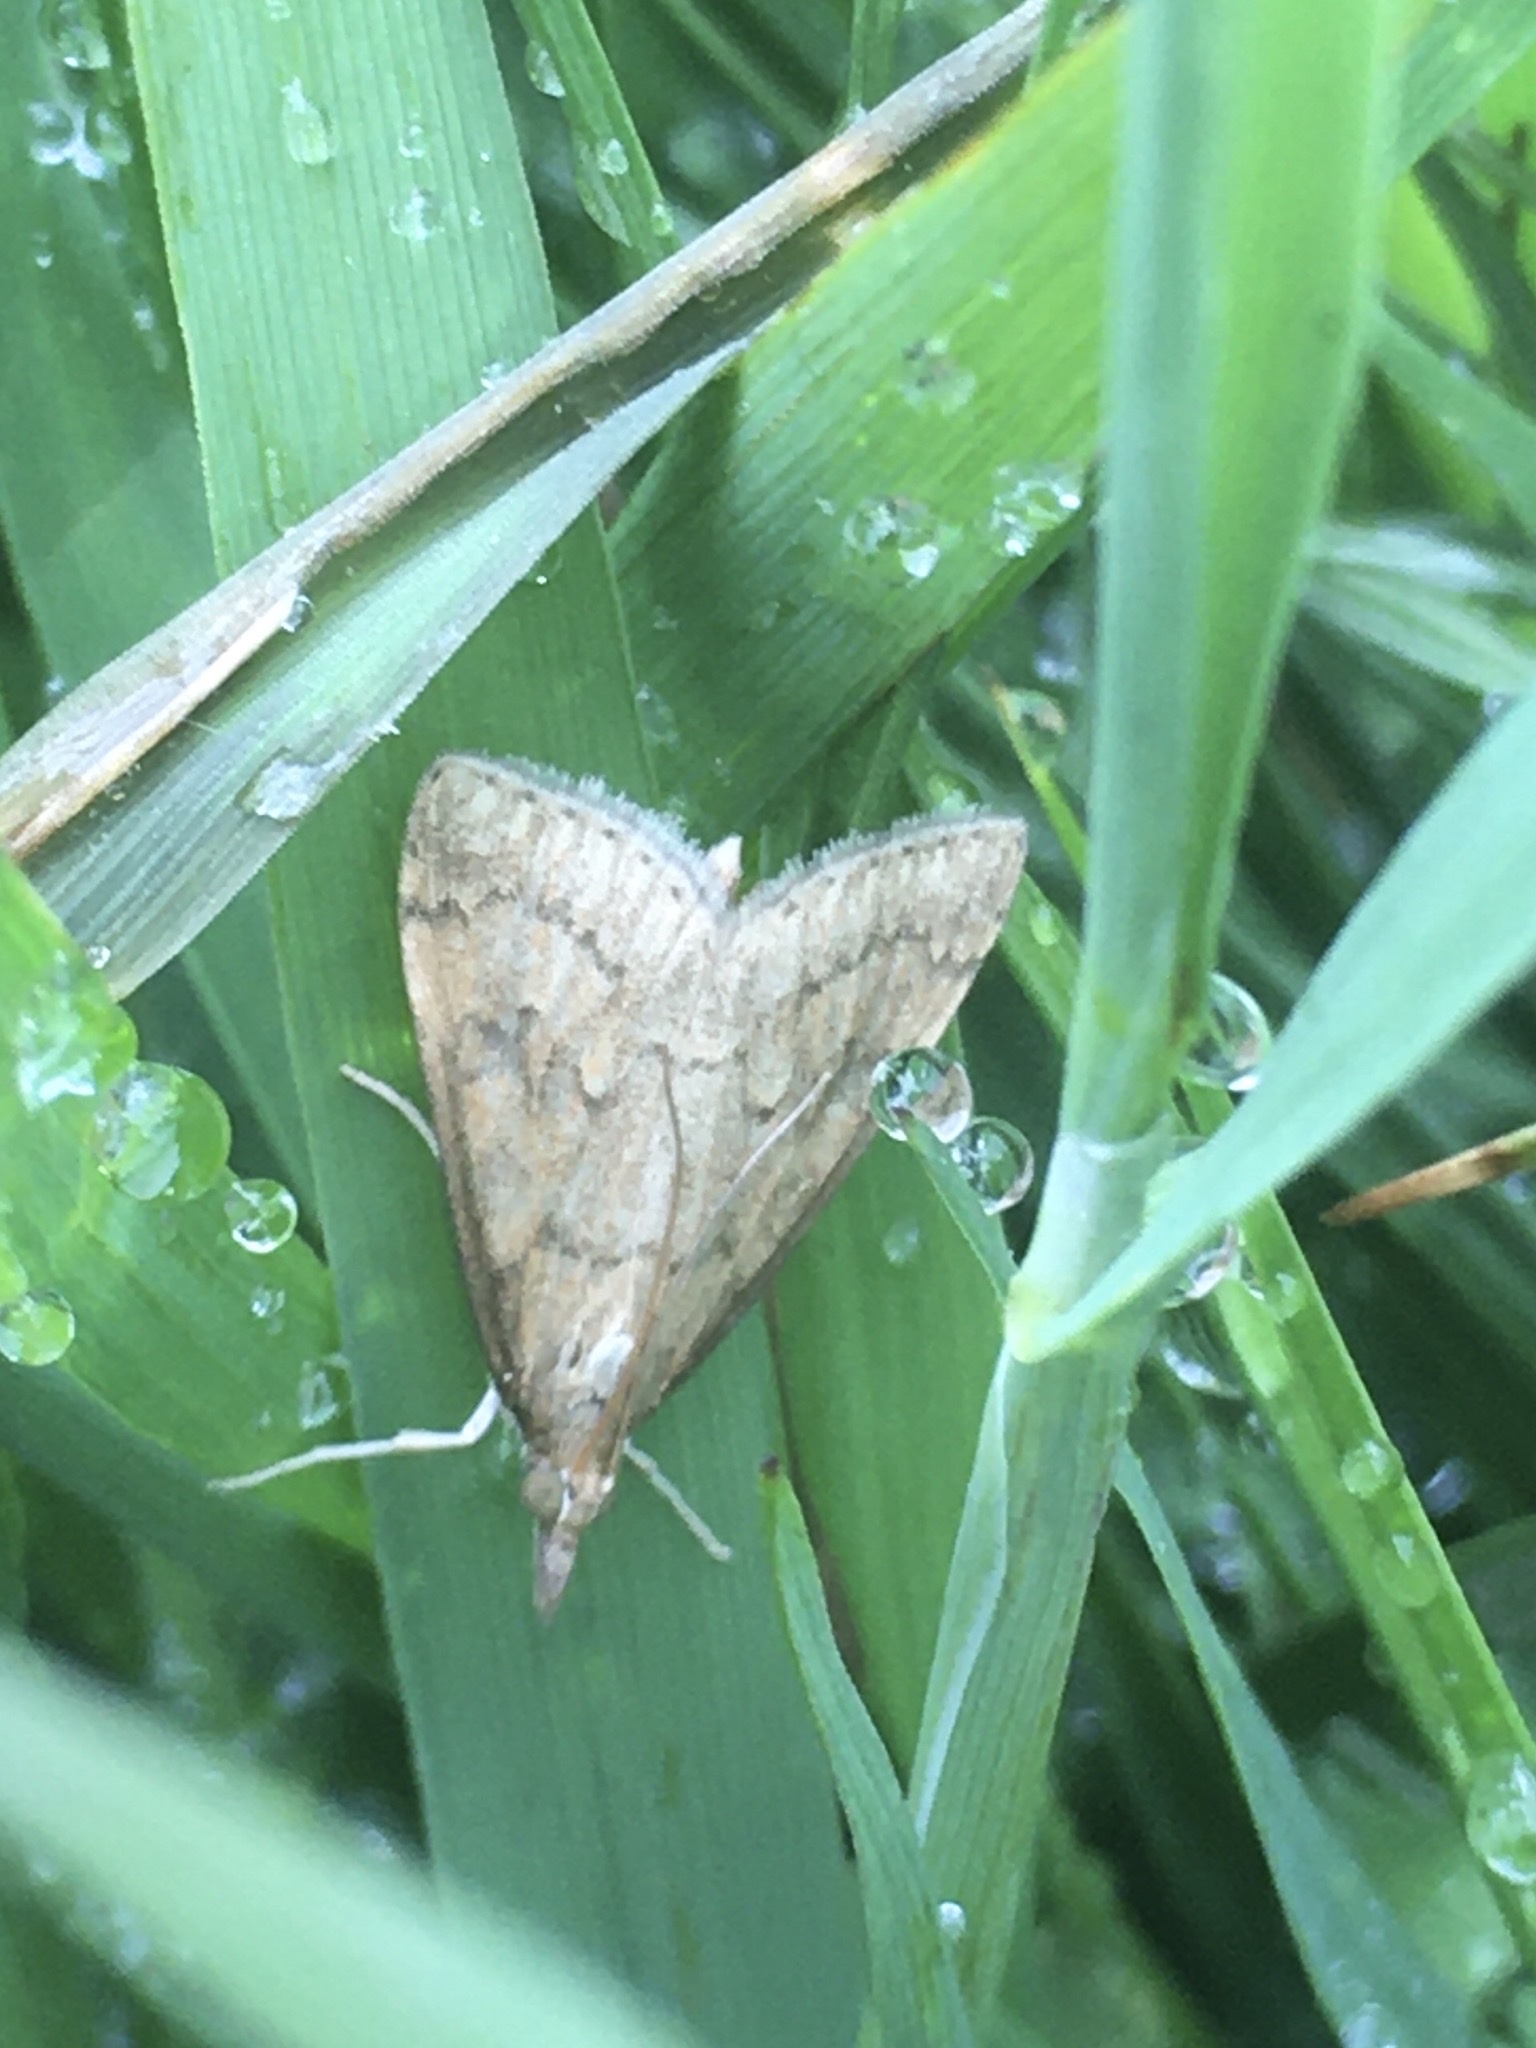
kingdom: Animalia
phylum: Arthropoda
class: Insecta
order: Lepidoptera
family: Crambidae
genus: Udea
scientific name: Udea rubigalis
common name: Celery leaftier moth
